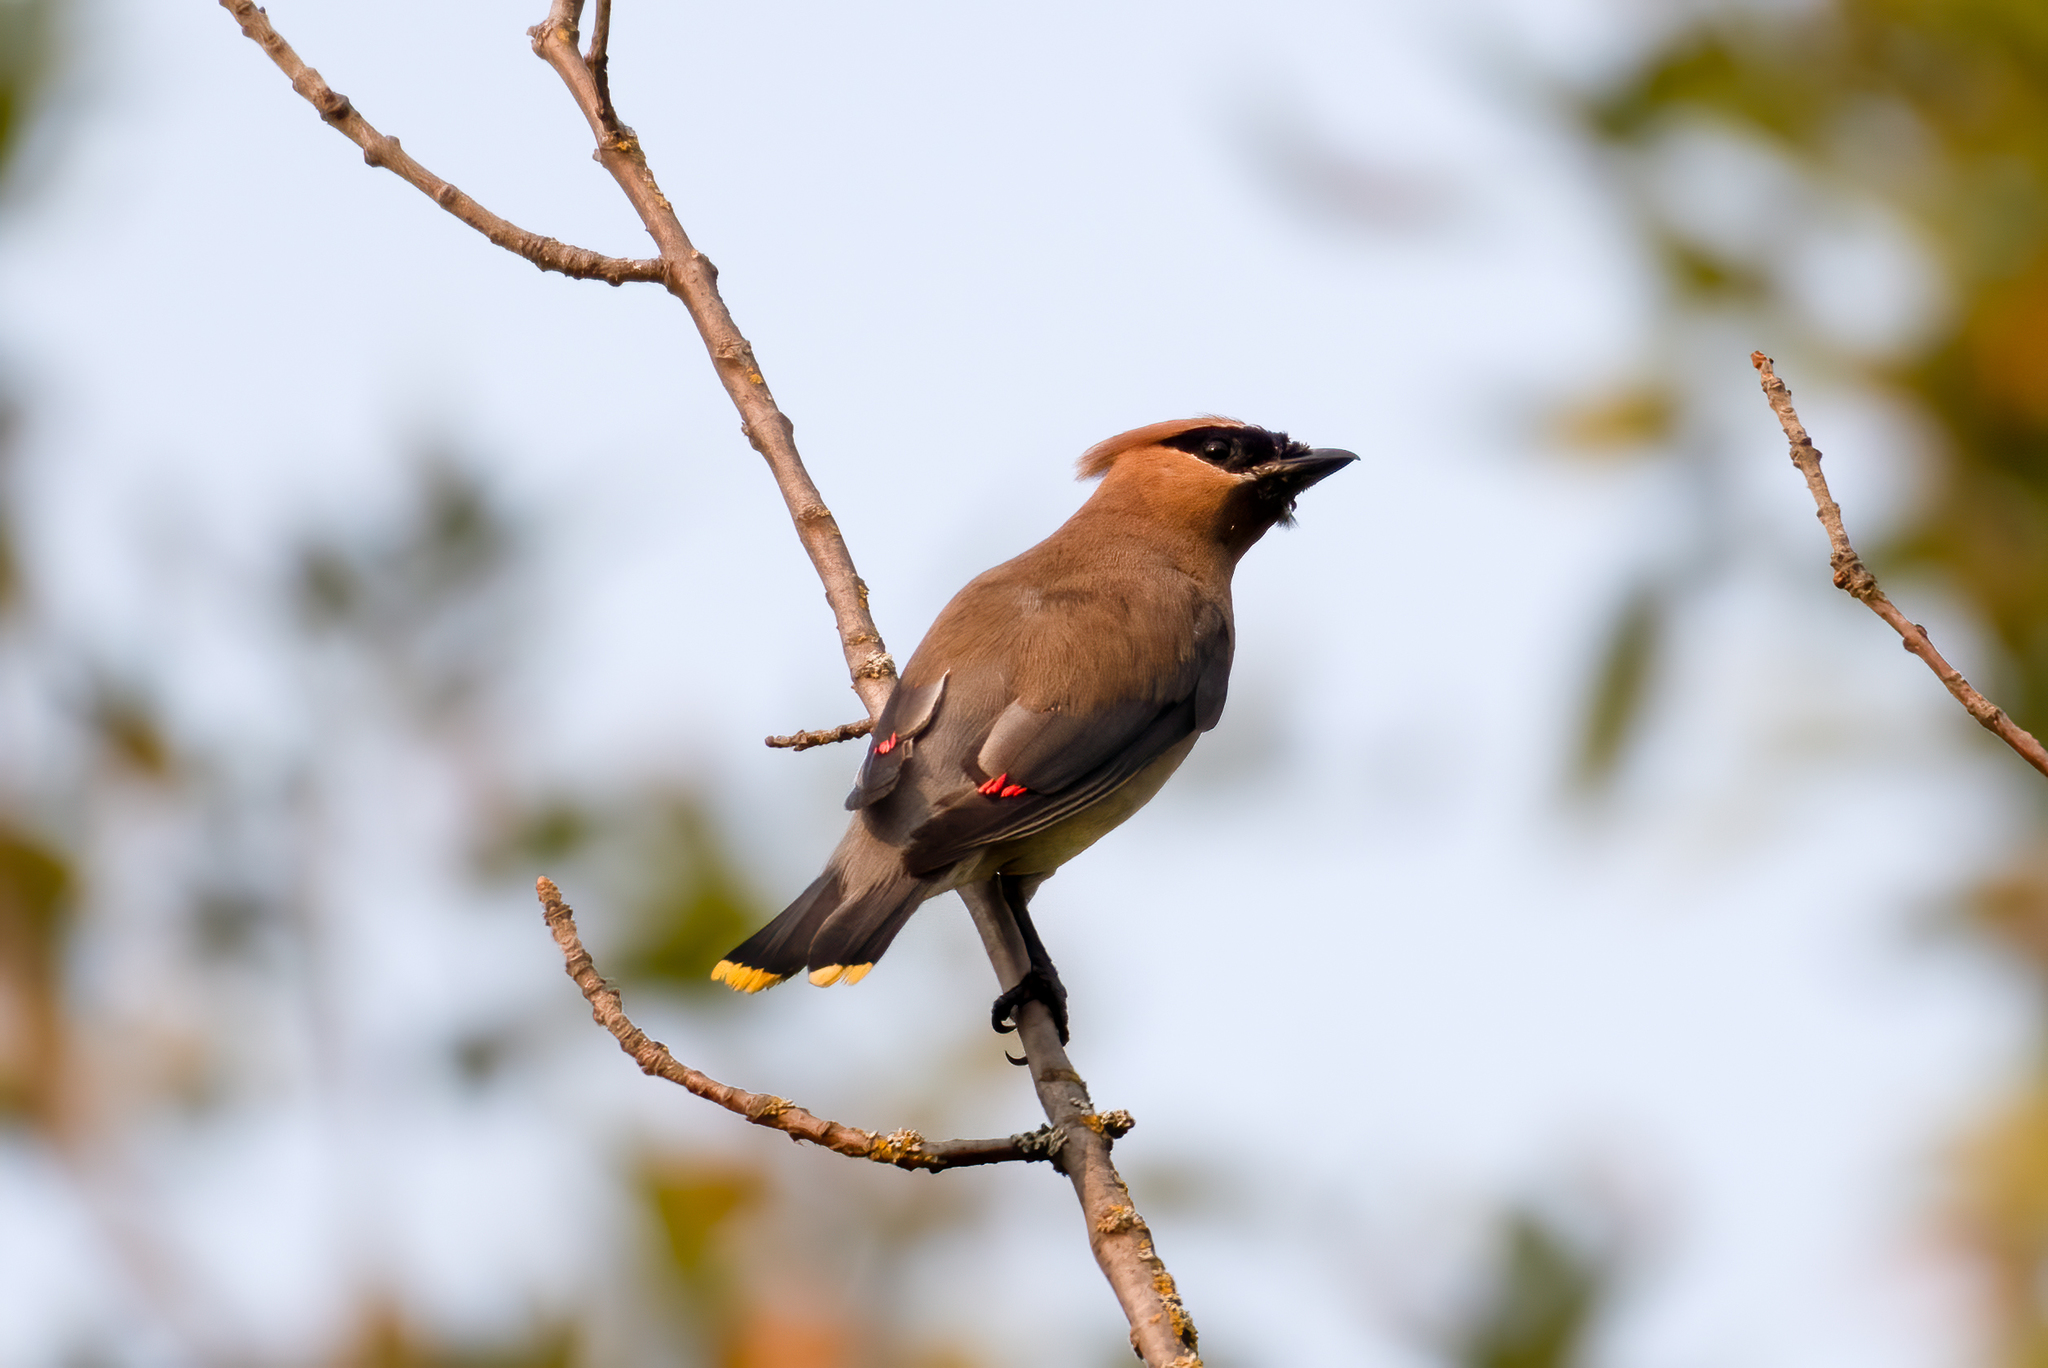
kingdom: Animalia
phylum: Chordata
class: Aves
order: Passeriformes
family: Bombycillidae
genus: Bombycilla
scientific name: Bombycilla cedrorum
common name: Cedar waxwing
